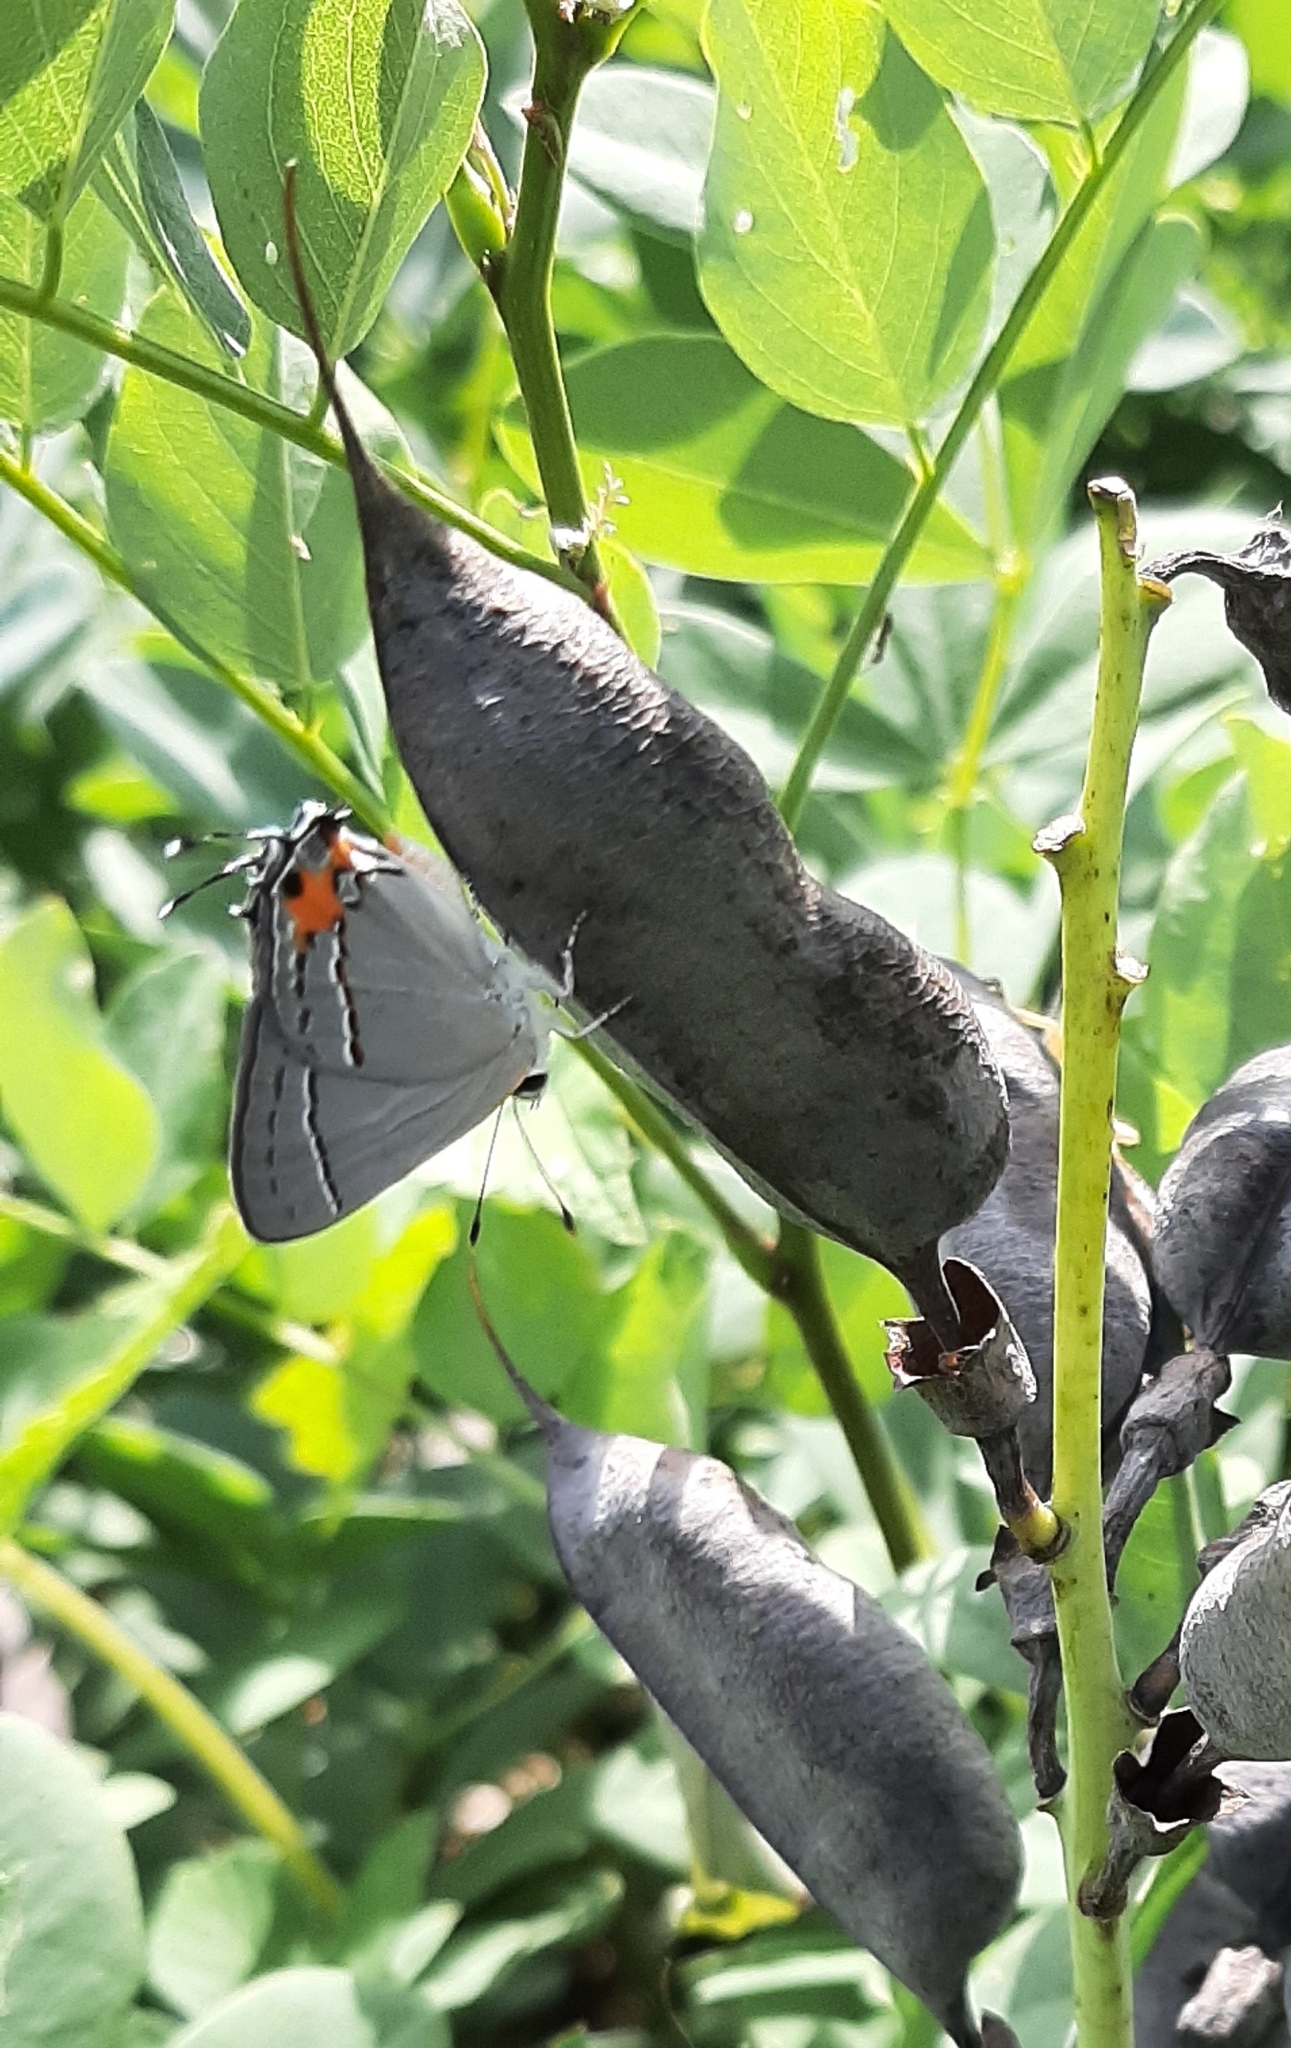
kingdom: Animalia
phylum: Arthropoda
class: Insecta
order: Lepidoptera
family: Lycaenidae
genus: Strymon
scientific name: Strymon melinus
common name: Gray hairstreak
